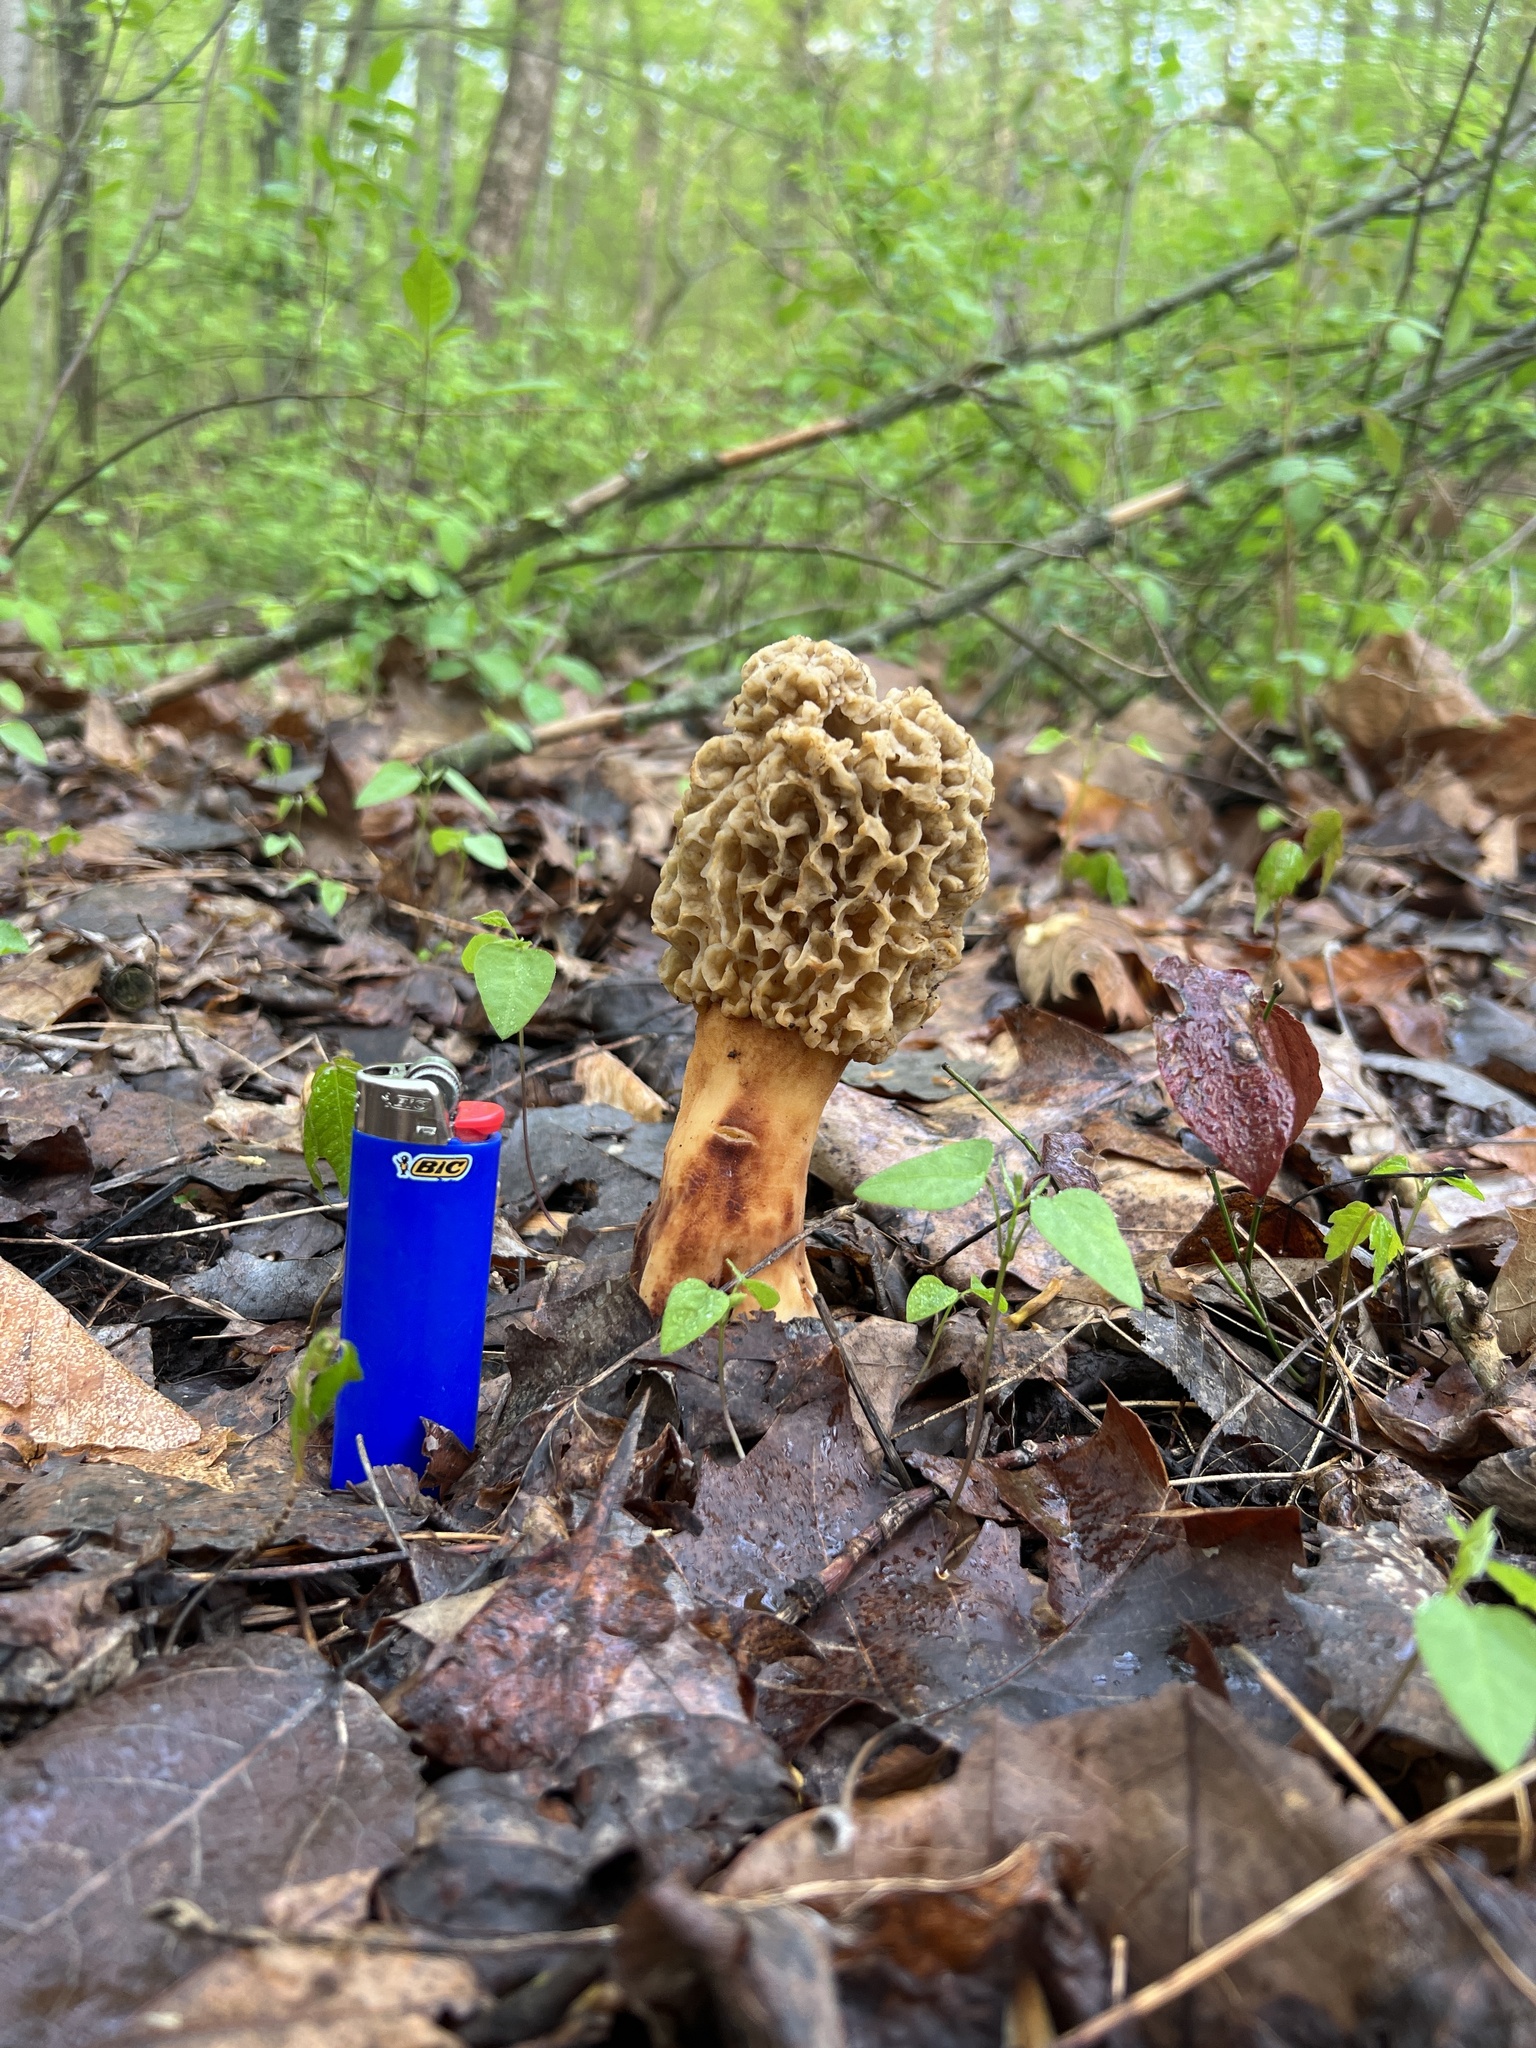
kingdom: Fungi
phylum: Ascomycota
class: Pezizomycetes
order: Pezizales
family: Morchellaceae
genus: Morchella
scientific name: Morchella americana
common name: White morel
